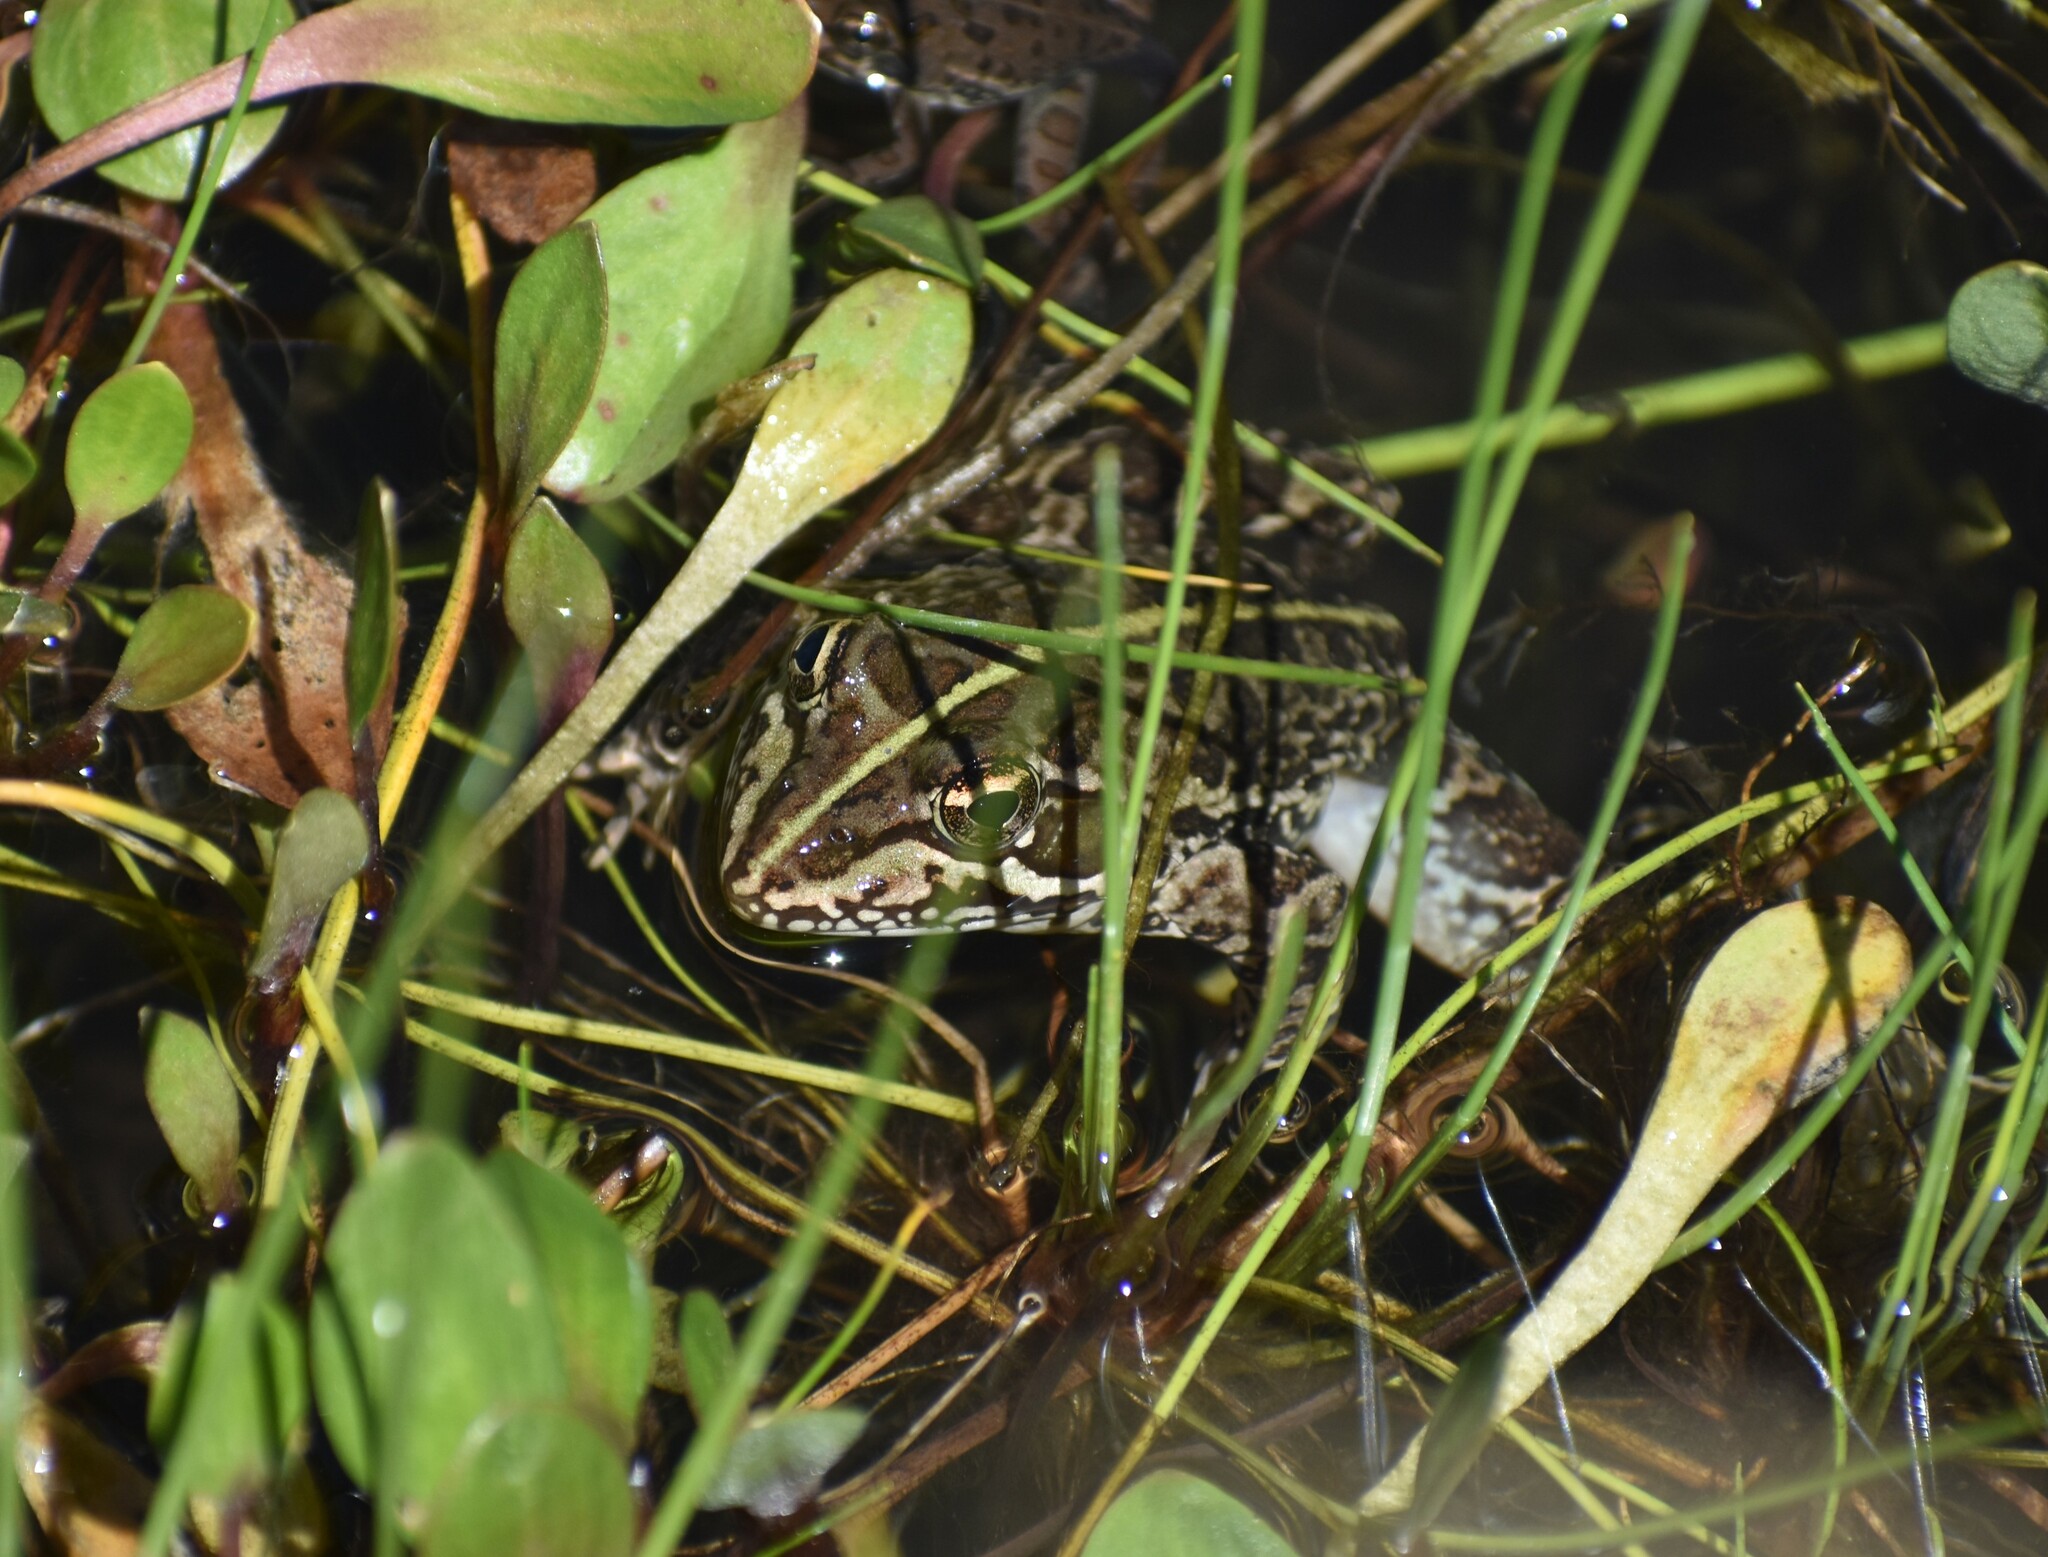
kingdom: Animalia
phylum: Chordata
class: Amphibia
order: Anura
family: Pyxicephalidae
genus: Amietia
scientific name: Amietia delalandii
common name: Delalande's river frog
